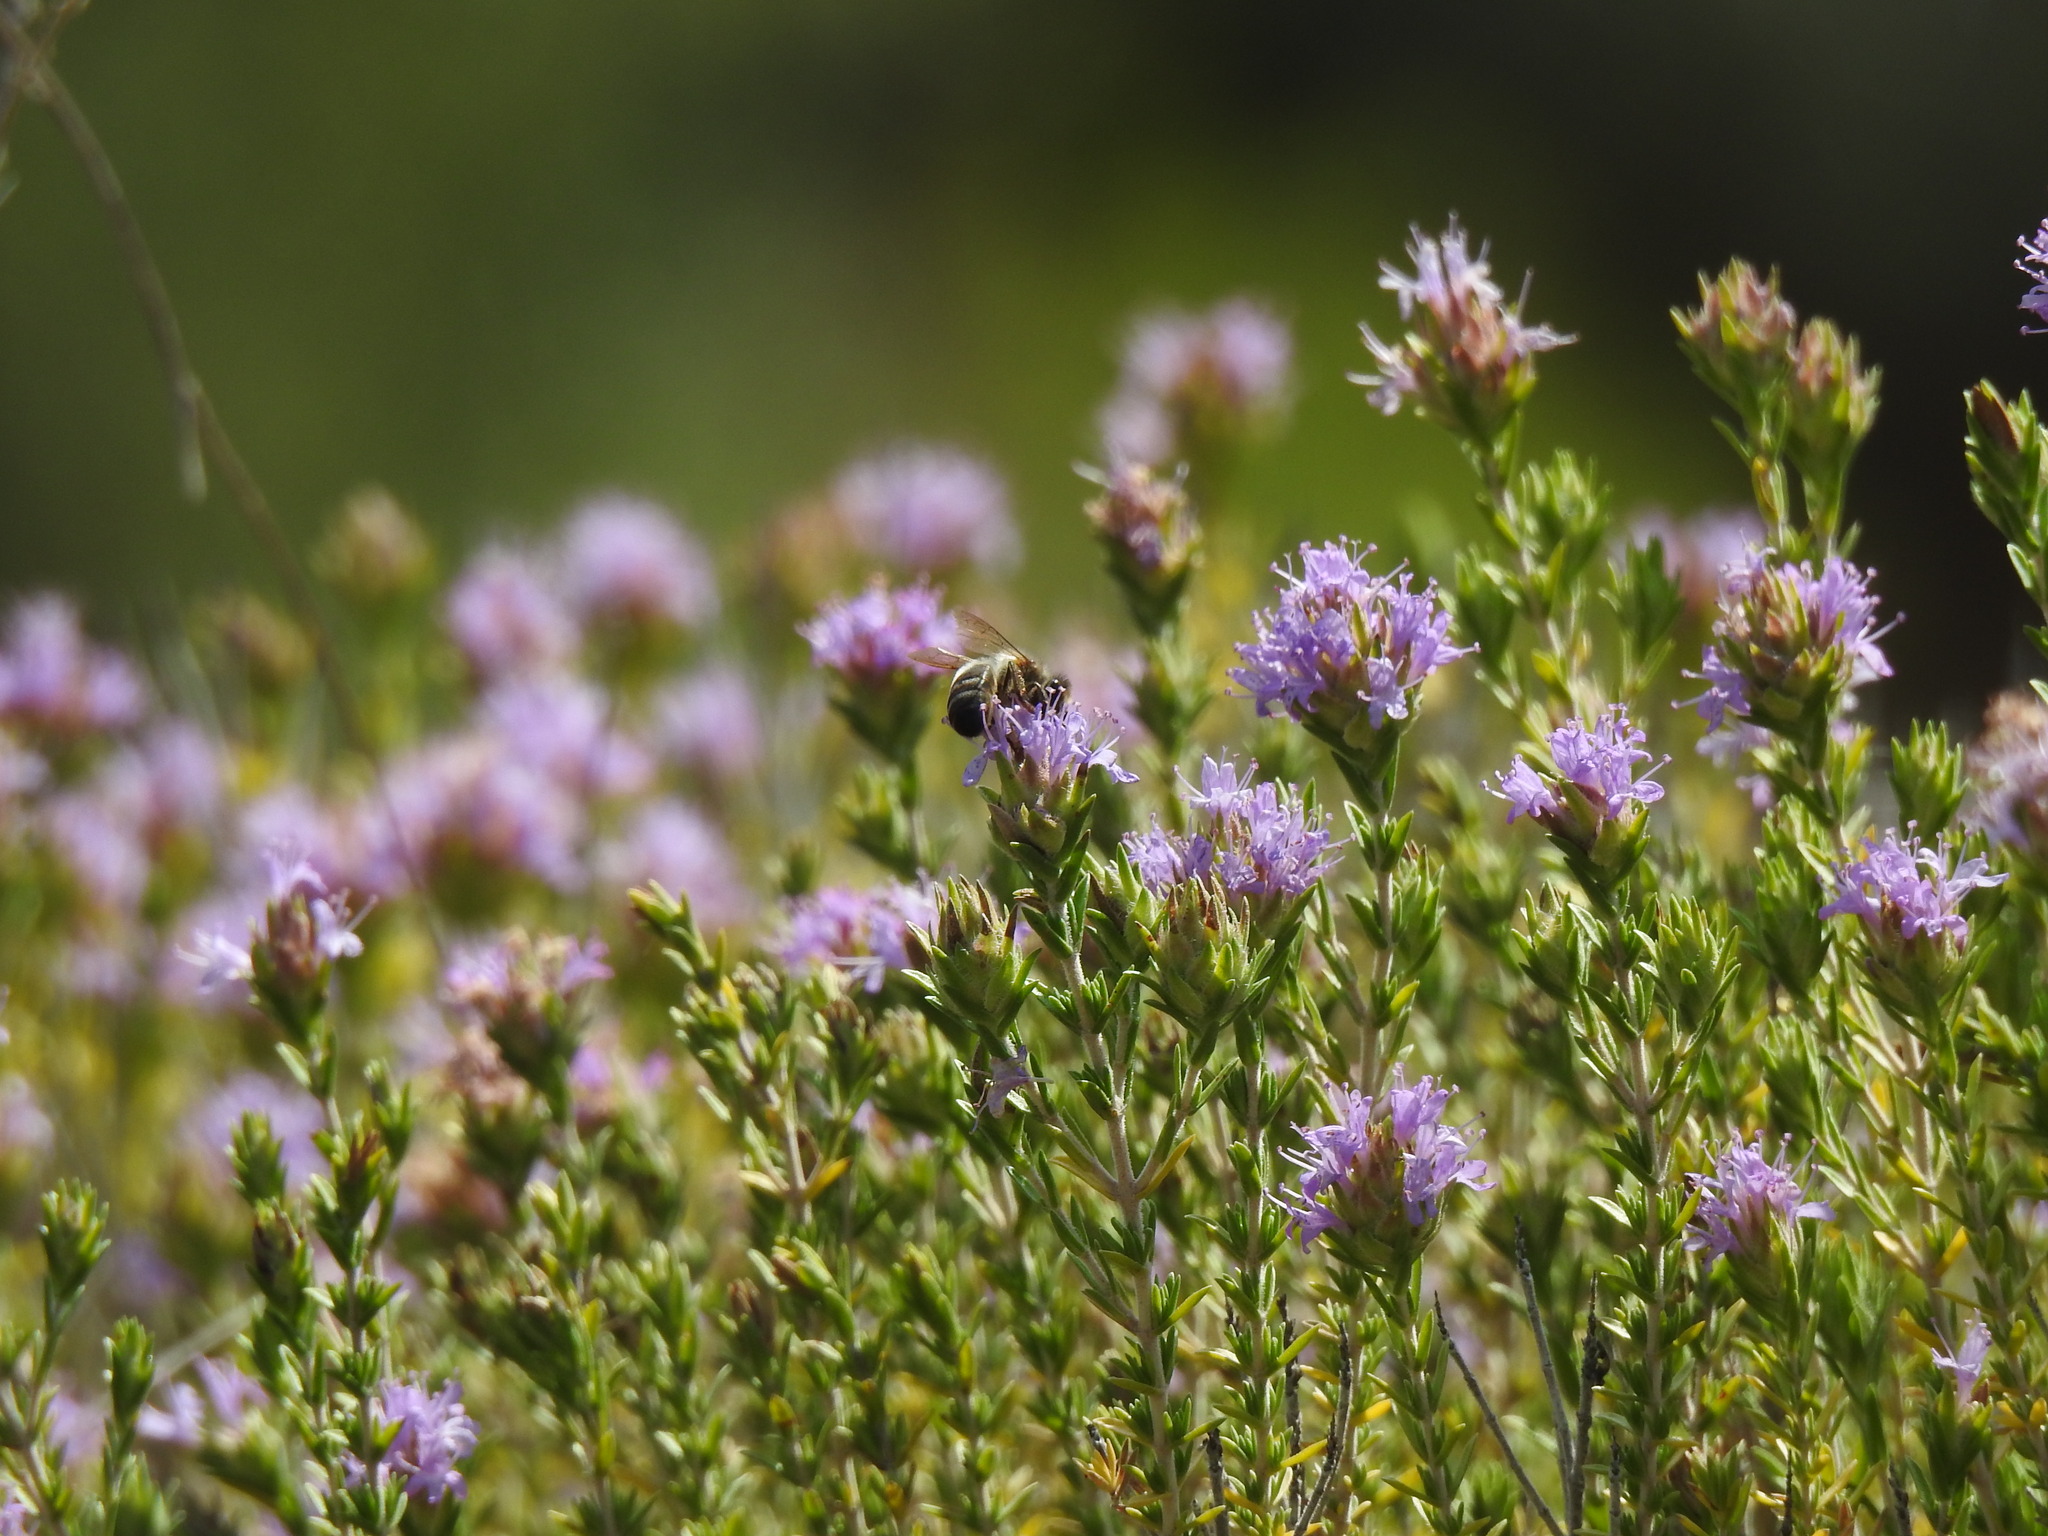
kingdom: Plantae
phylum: Tracheophyta
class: Magnoliopsida
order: Lamiales
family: Lamiaceae
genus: Thymbra
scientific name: Thymbra capitata
